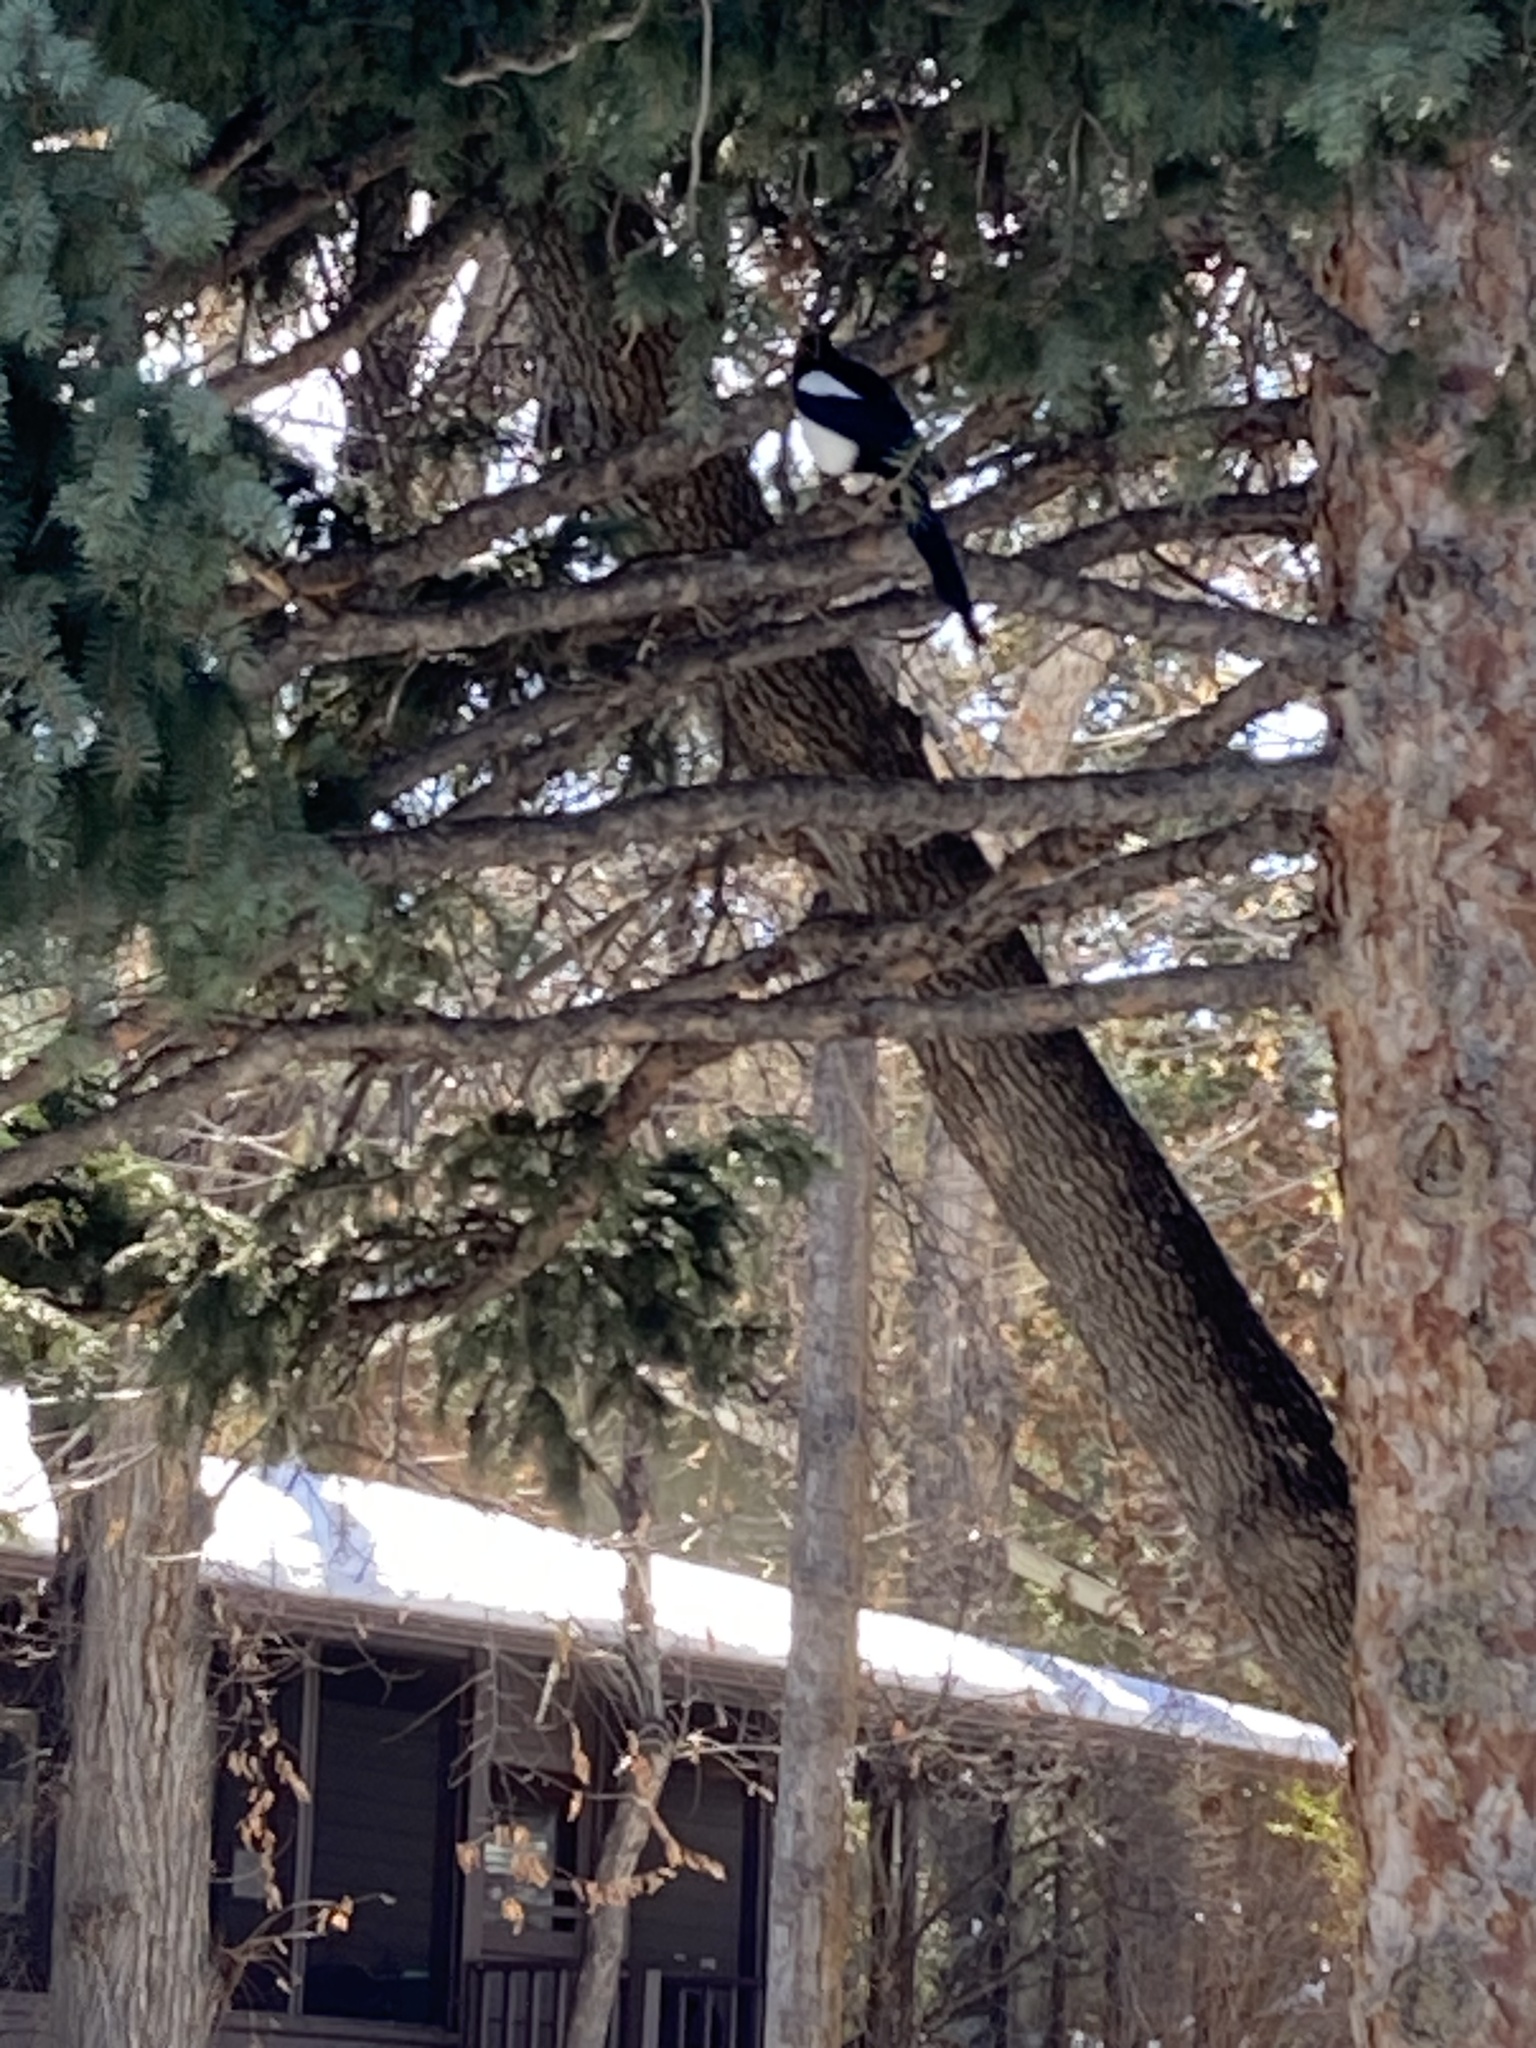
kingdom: Animalia
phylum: Chordata
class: Aves
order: Passeriformes
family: Corvidae
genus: Pica
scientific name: Pica hudsonia
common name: Black-billed magpie
